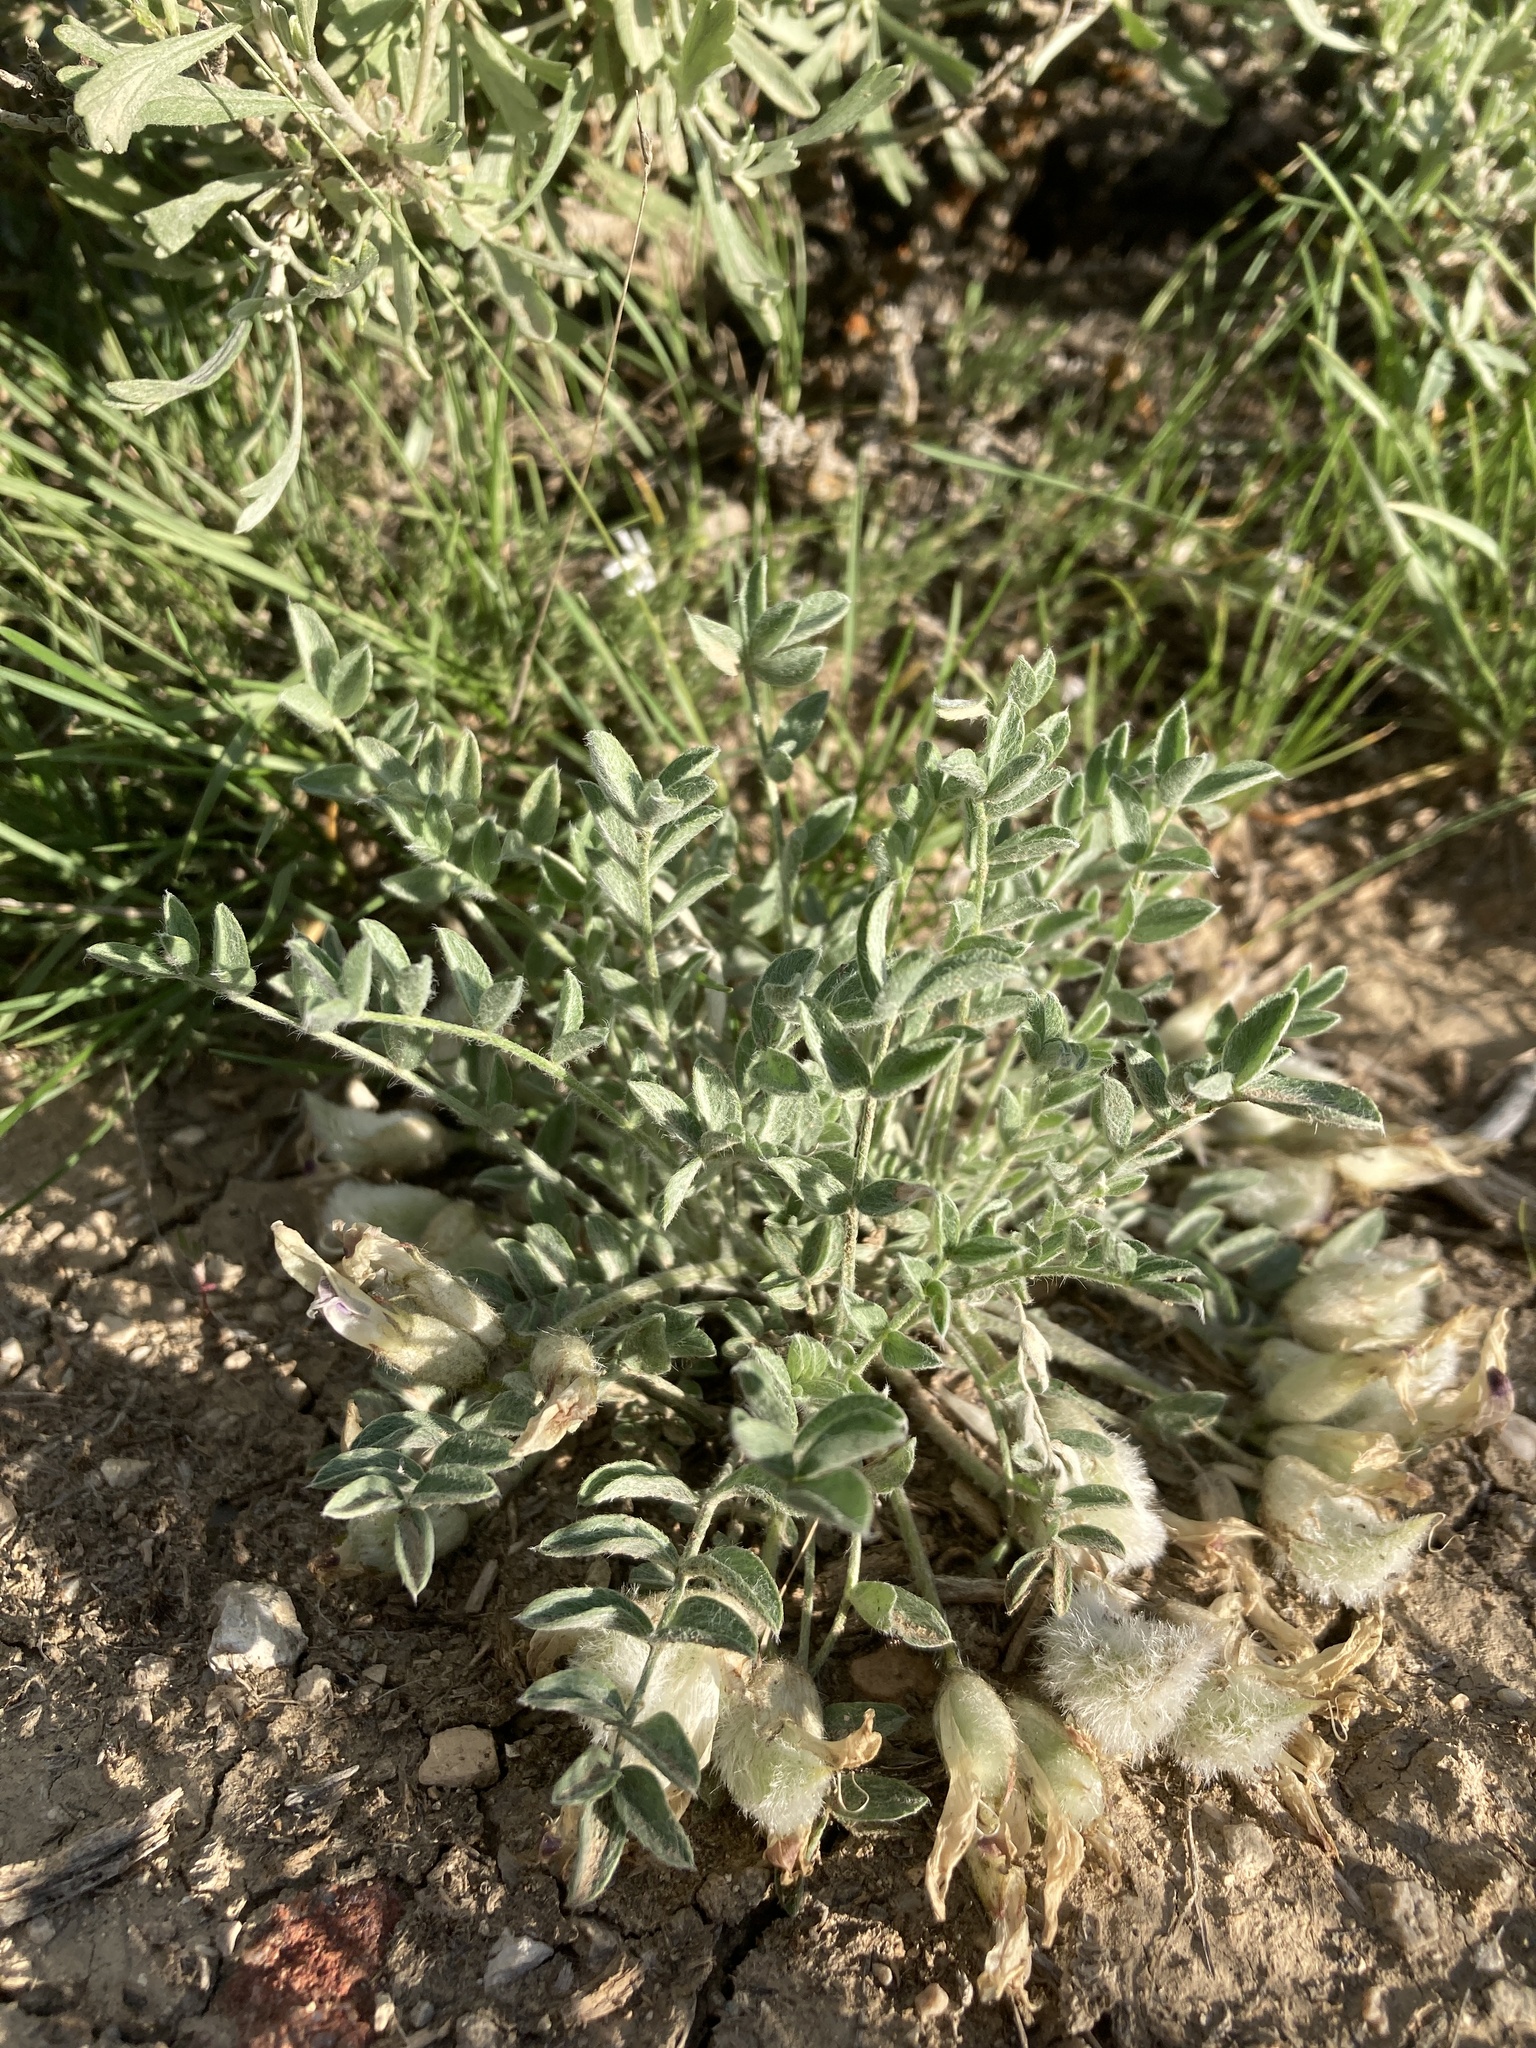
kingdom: Plantae
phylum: Tracheophyta
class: Magnoliopsida
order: Fabales
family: Fabaceae
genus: Astragalus
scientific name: Astragalus purshii
